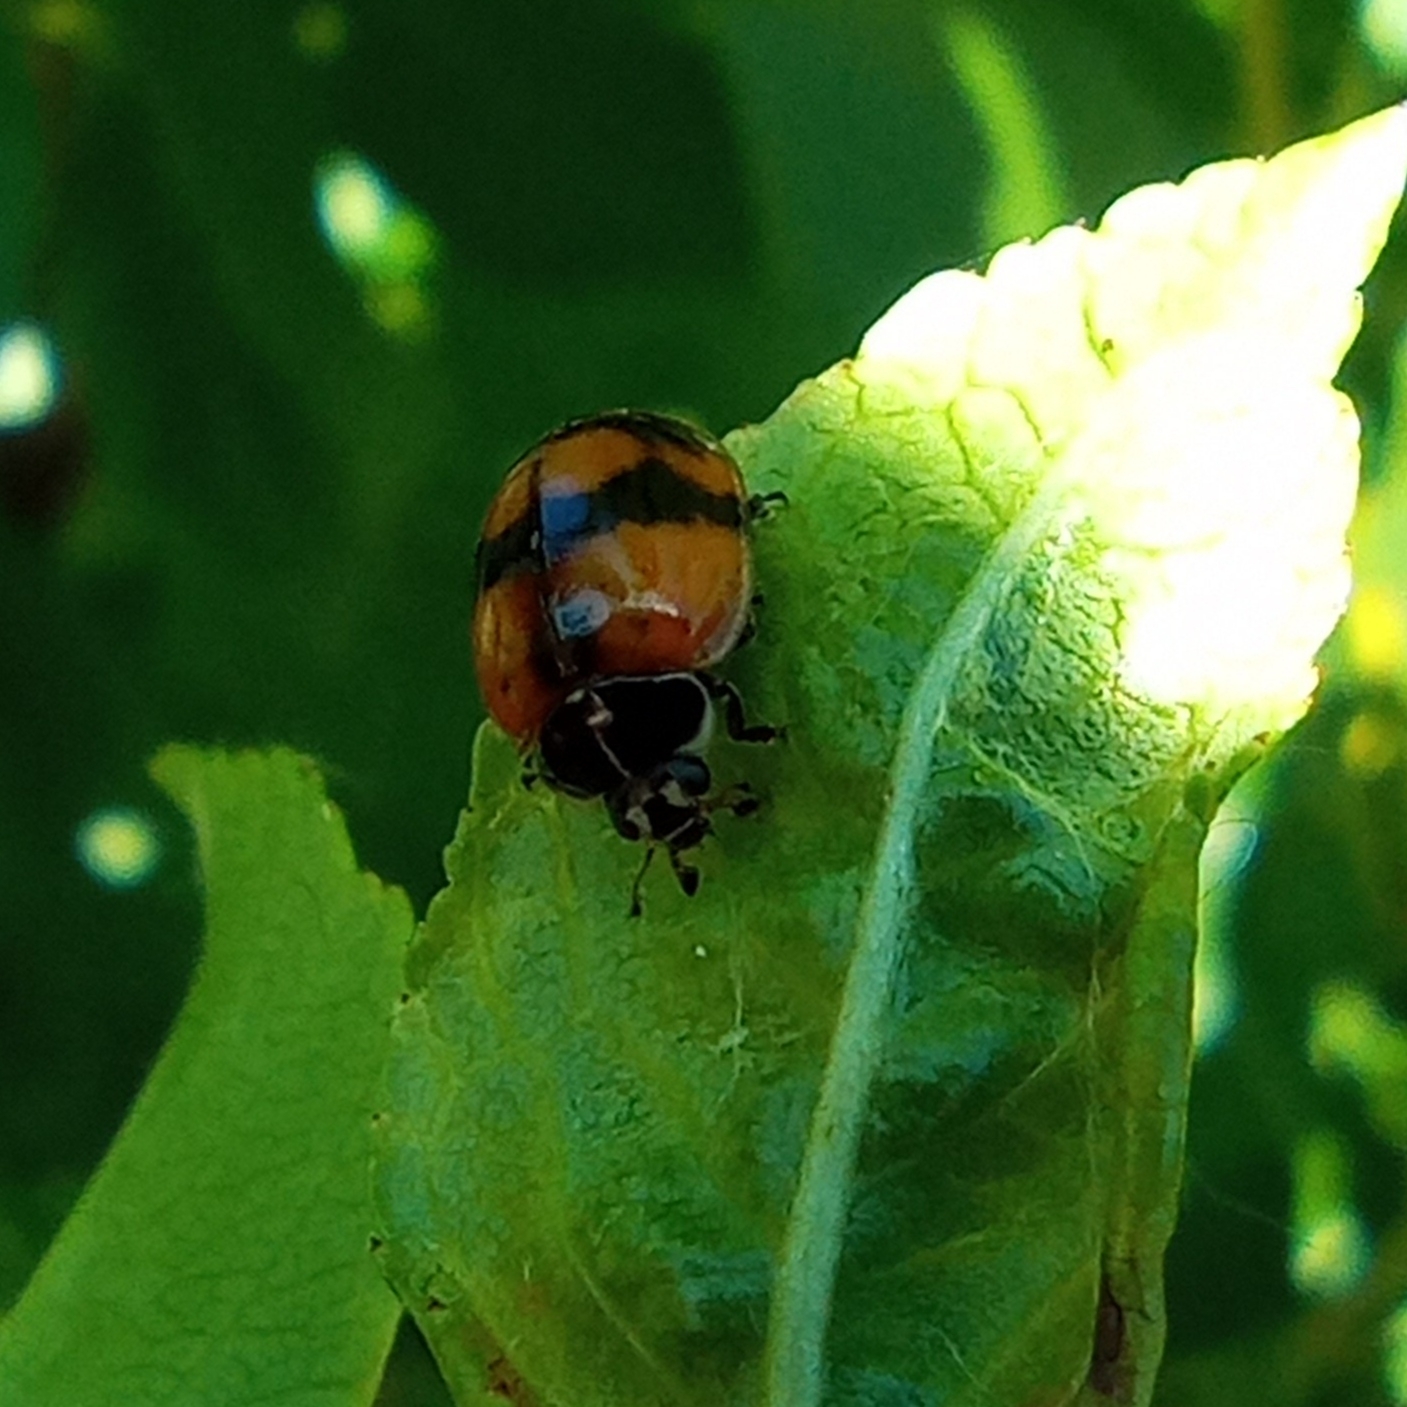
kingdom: Animalia
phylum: Arthropoda
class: Insecta
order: Coleoptera
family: Coccinellidae
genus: Adalia
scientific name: Adalia bipunctata
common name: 2-spot ladybird
